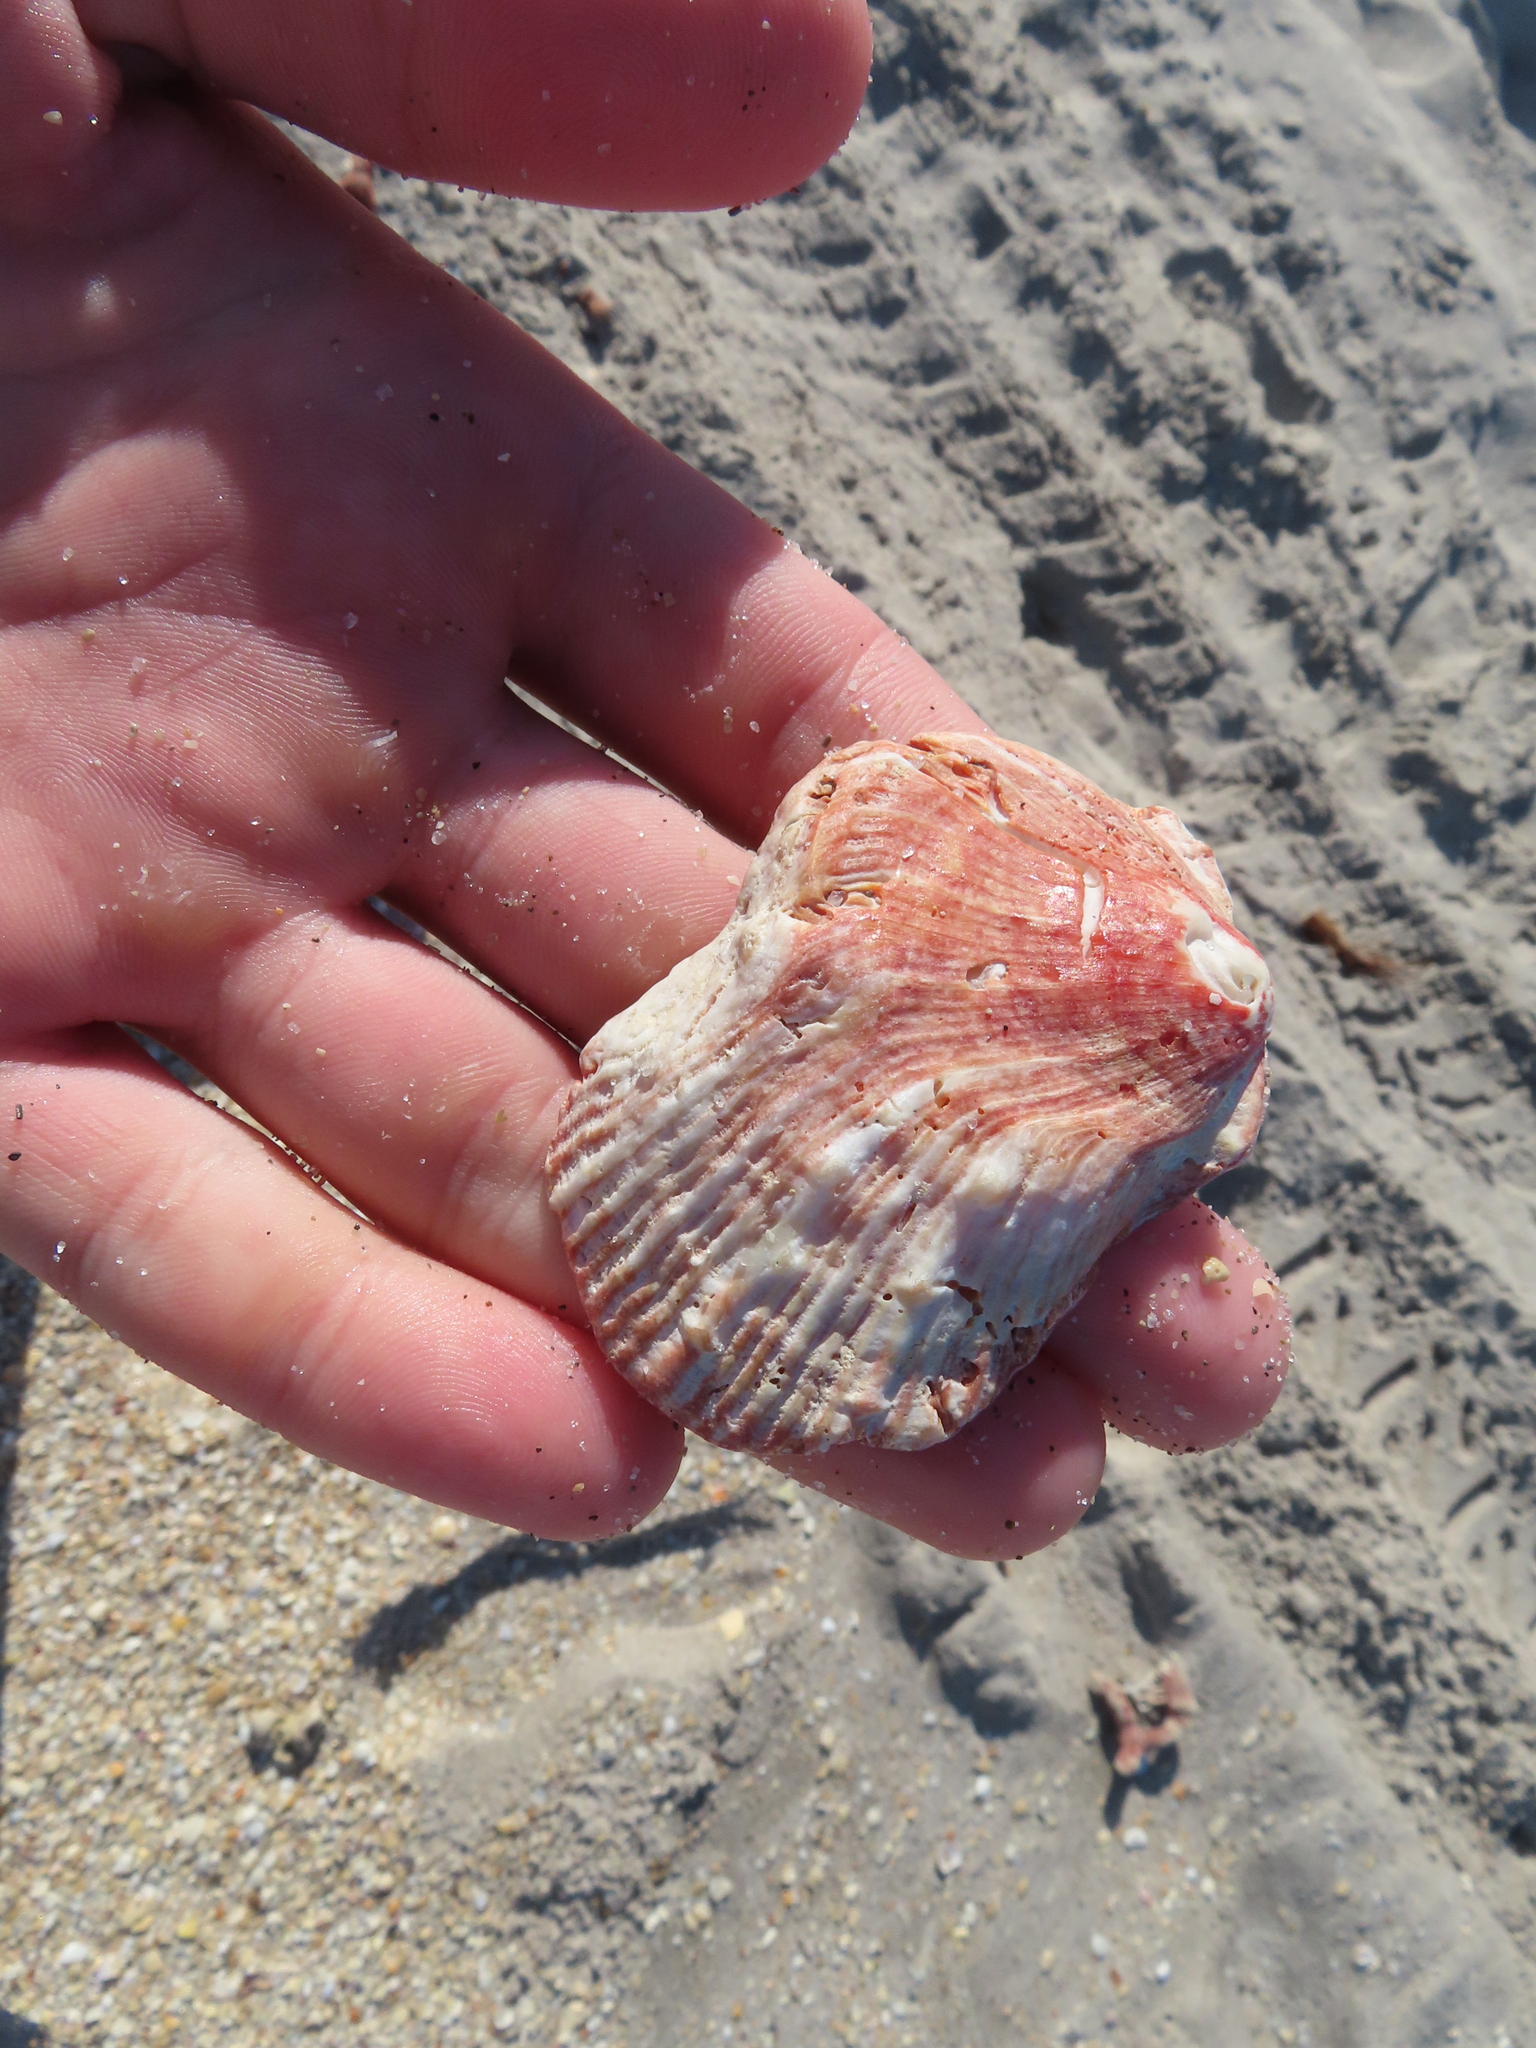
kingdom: Animalia
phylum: Mollusca
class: Bivalvia
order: Pectinida
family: Spondylidae
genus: Spondylus
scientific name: Spondylus tenuis
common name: Digitate thorny oyster
